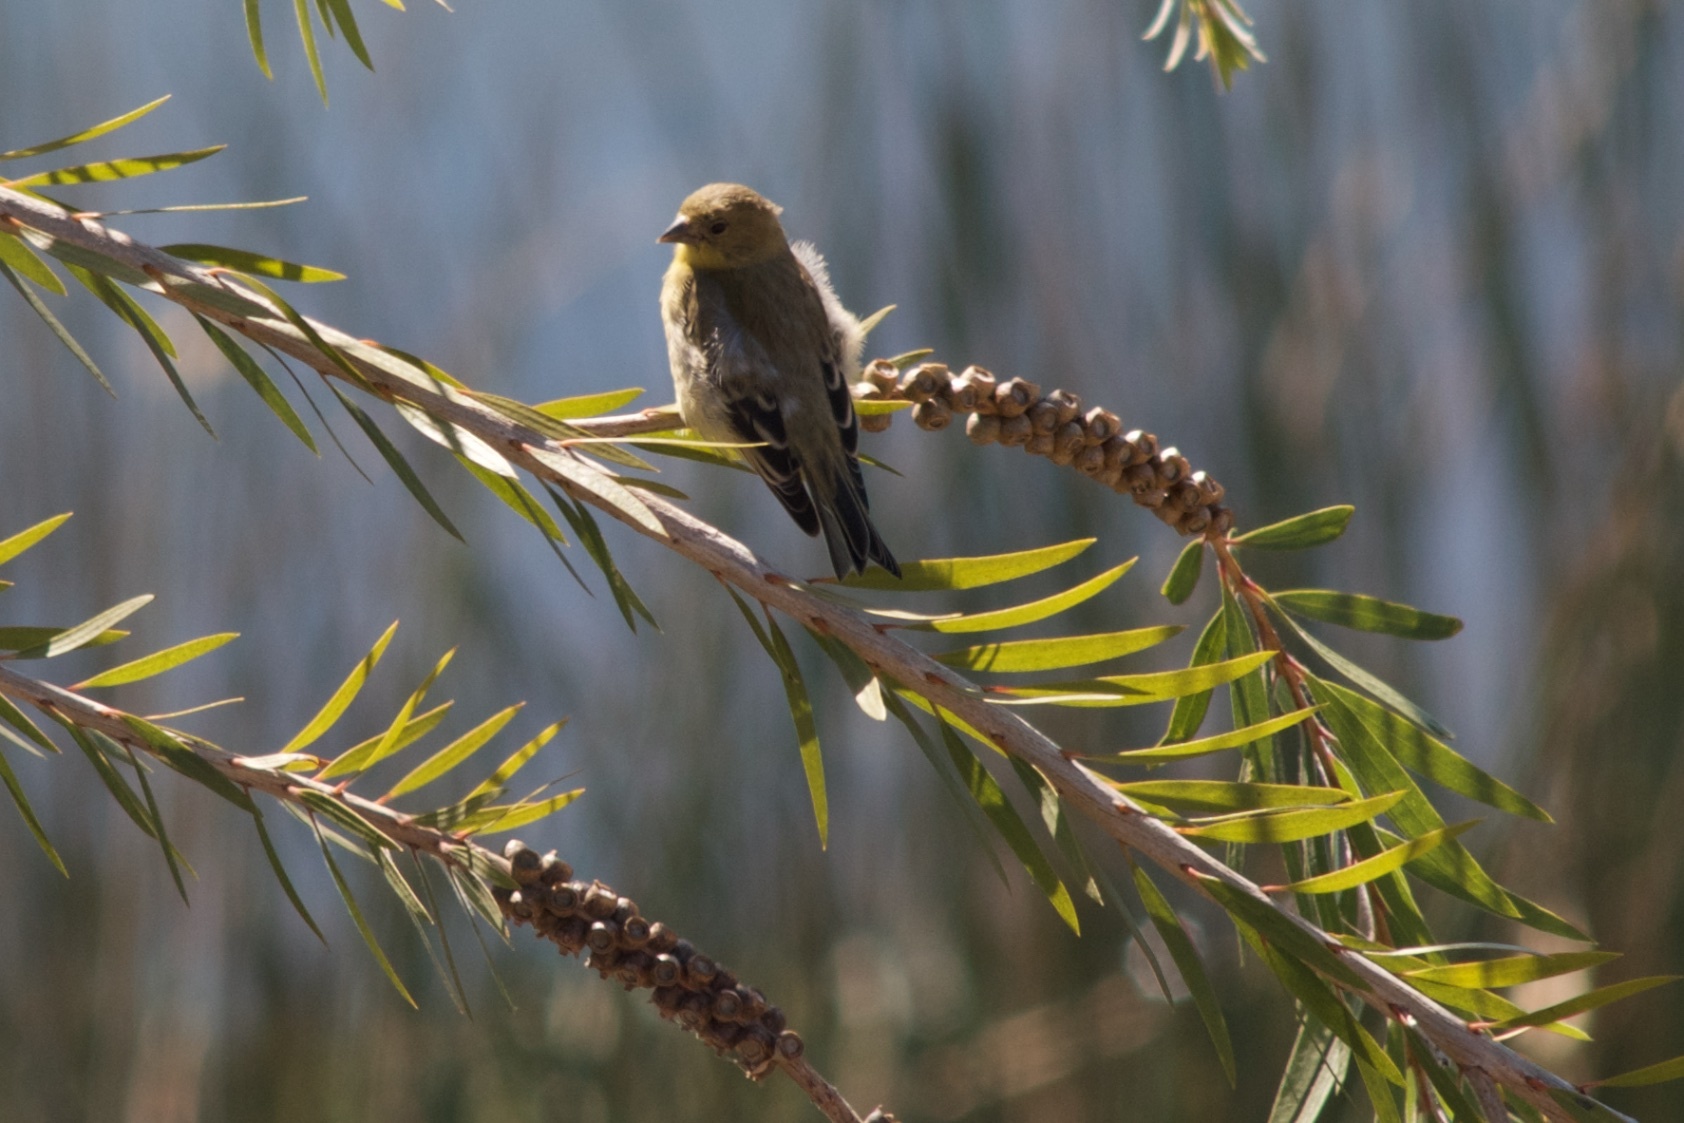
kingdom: Animalia
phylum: Chordata
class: Aves
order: Passeriformes
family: Fringillidae
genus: Spinus
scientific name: Spinus tristis
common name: American goldfinch
